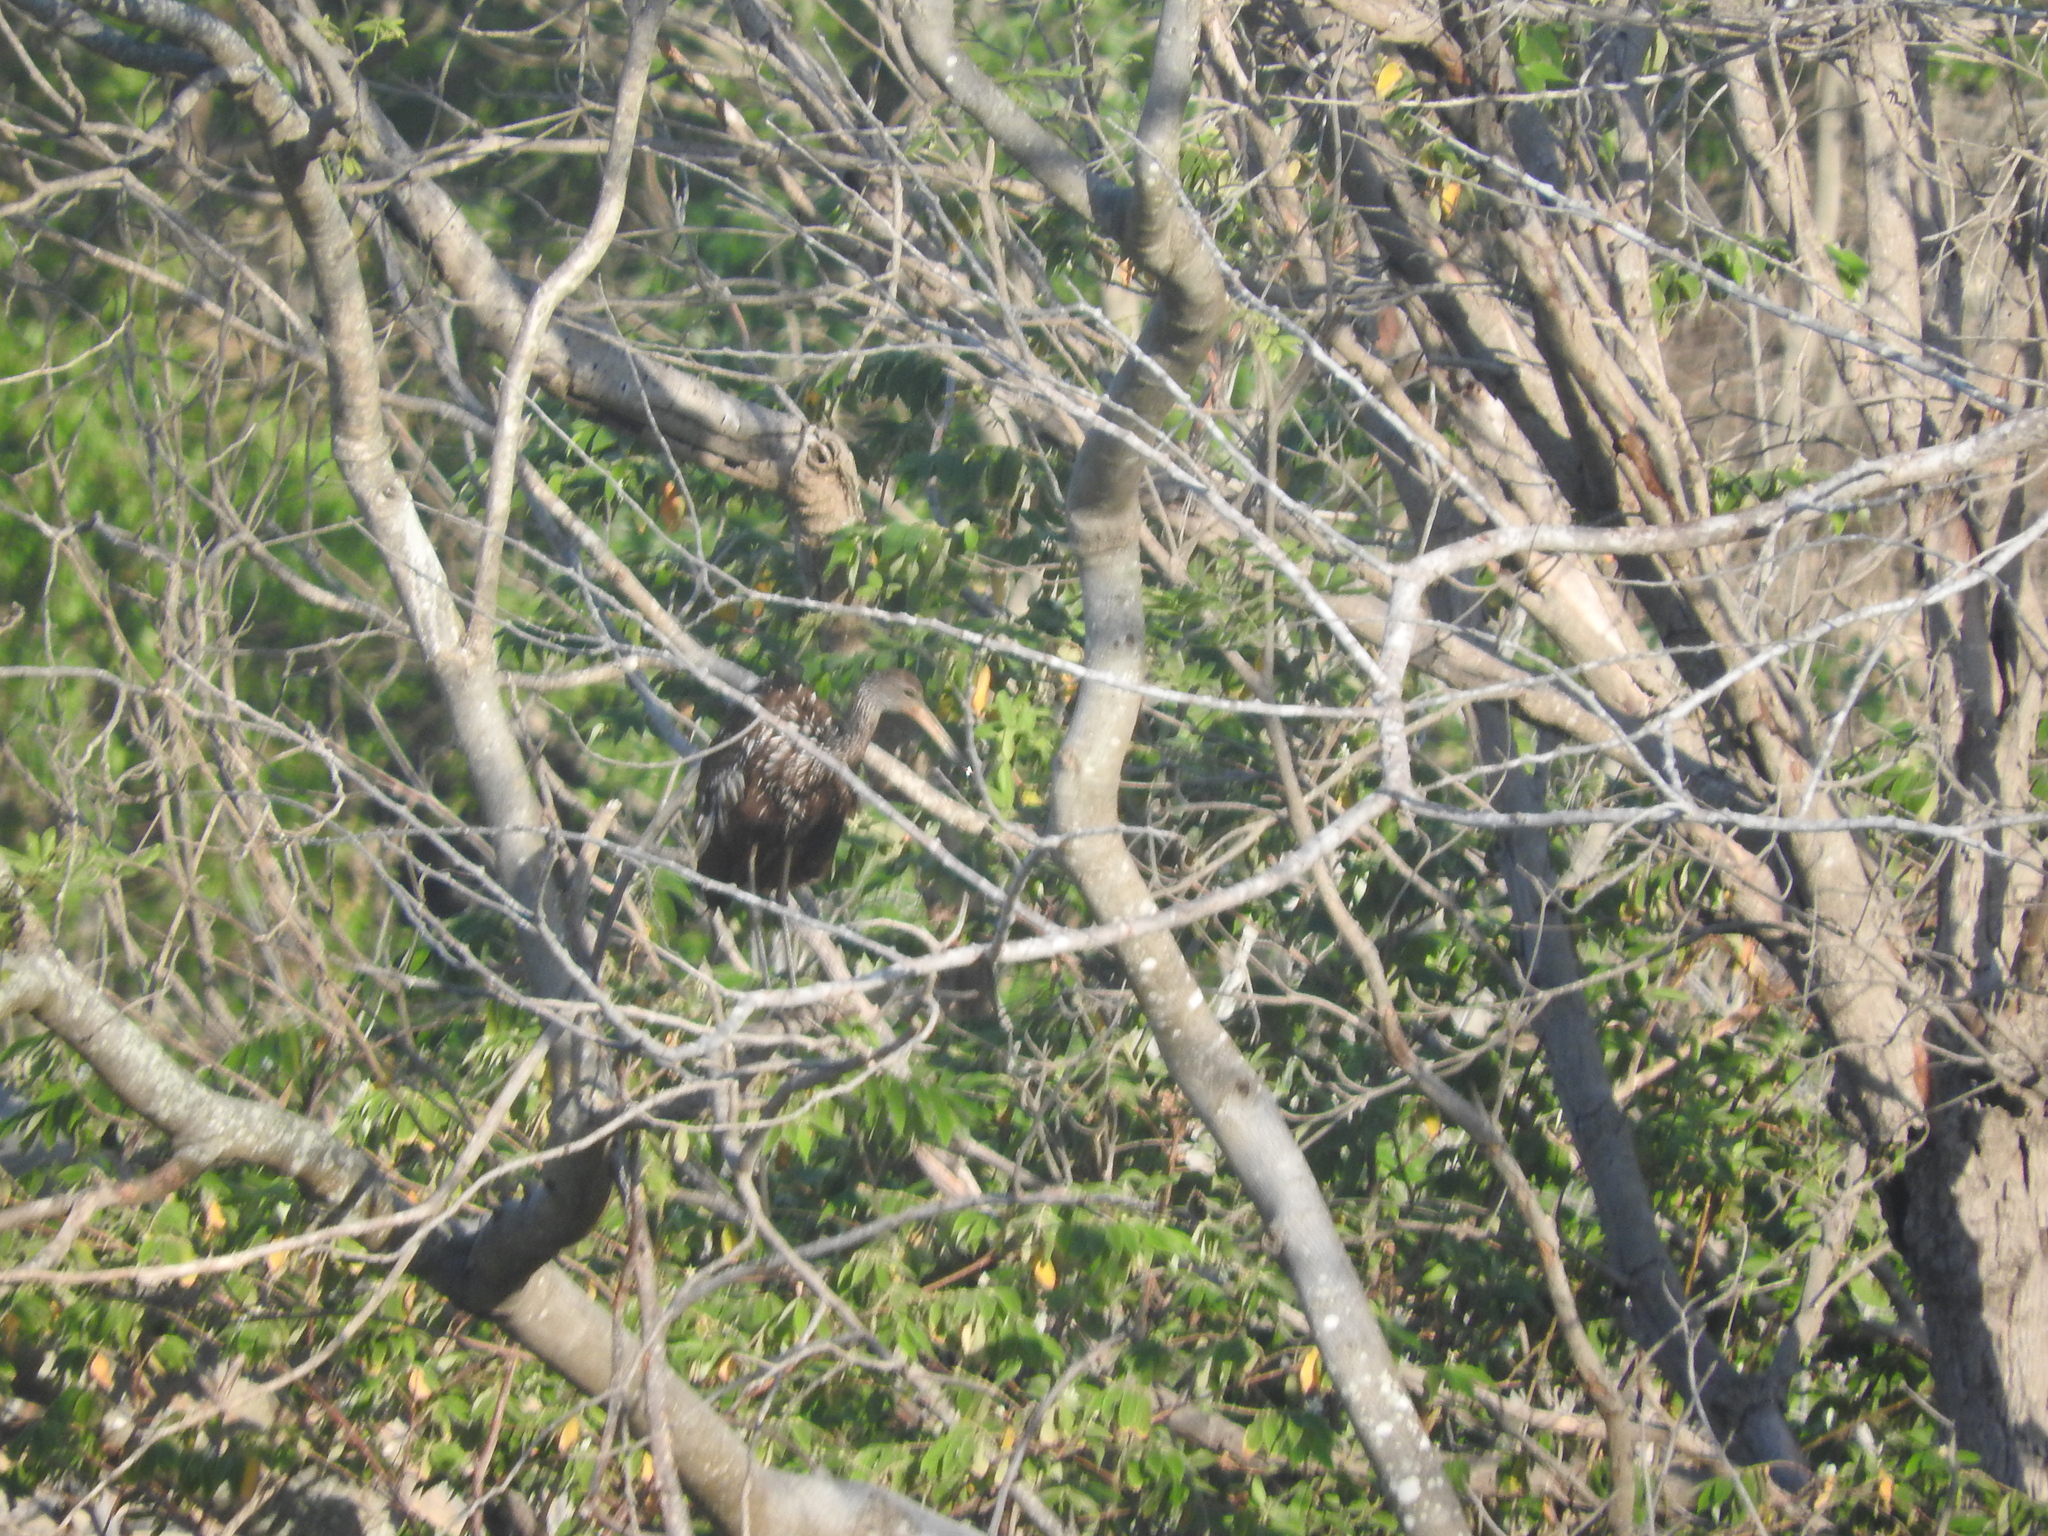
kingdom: Animalia
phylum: Chordata
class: Aves
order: Gruiformes
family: Aramidae
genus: Aramus
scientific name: Aramus guarauna
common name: Limpkin
